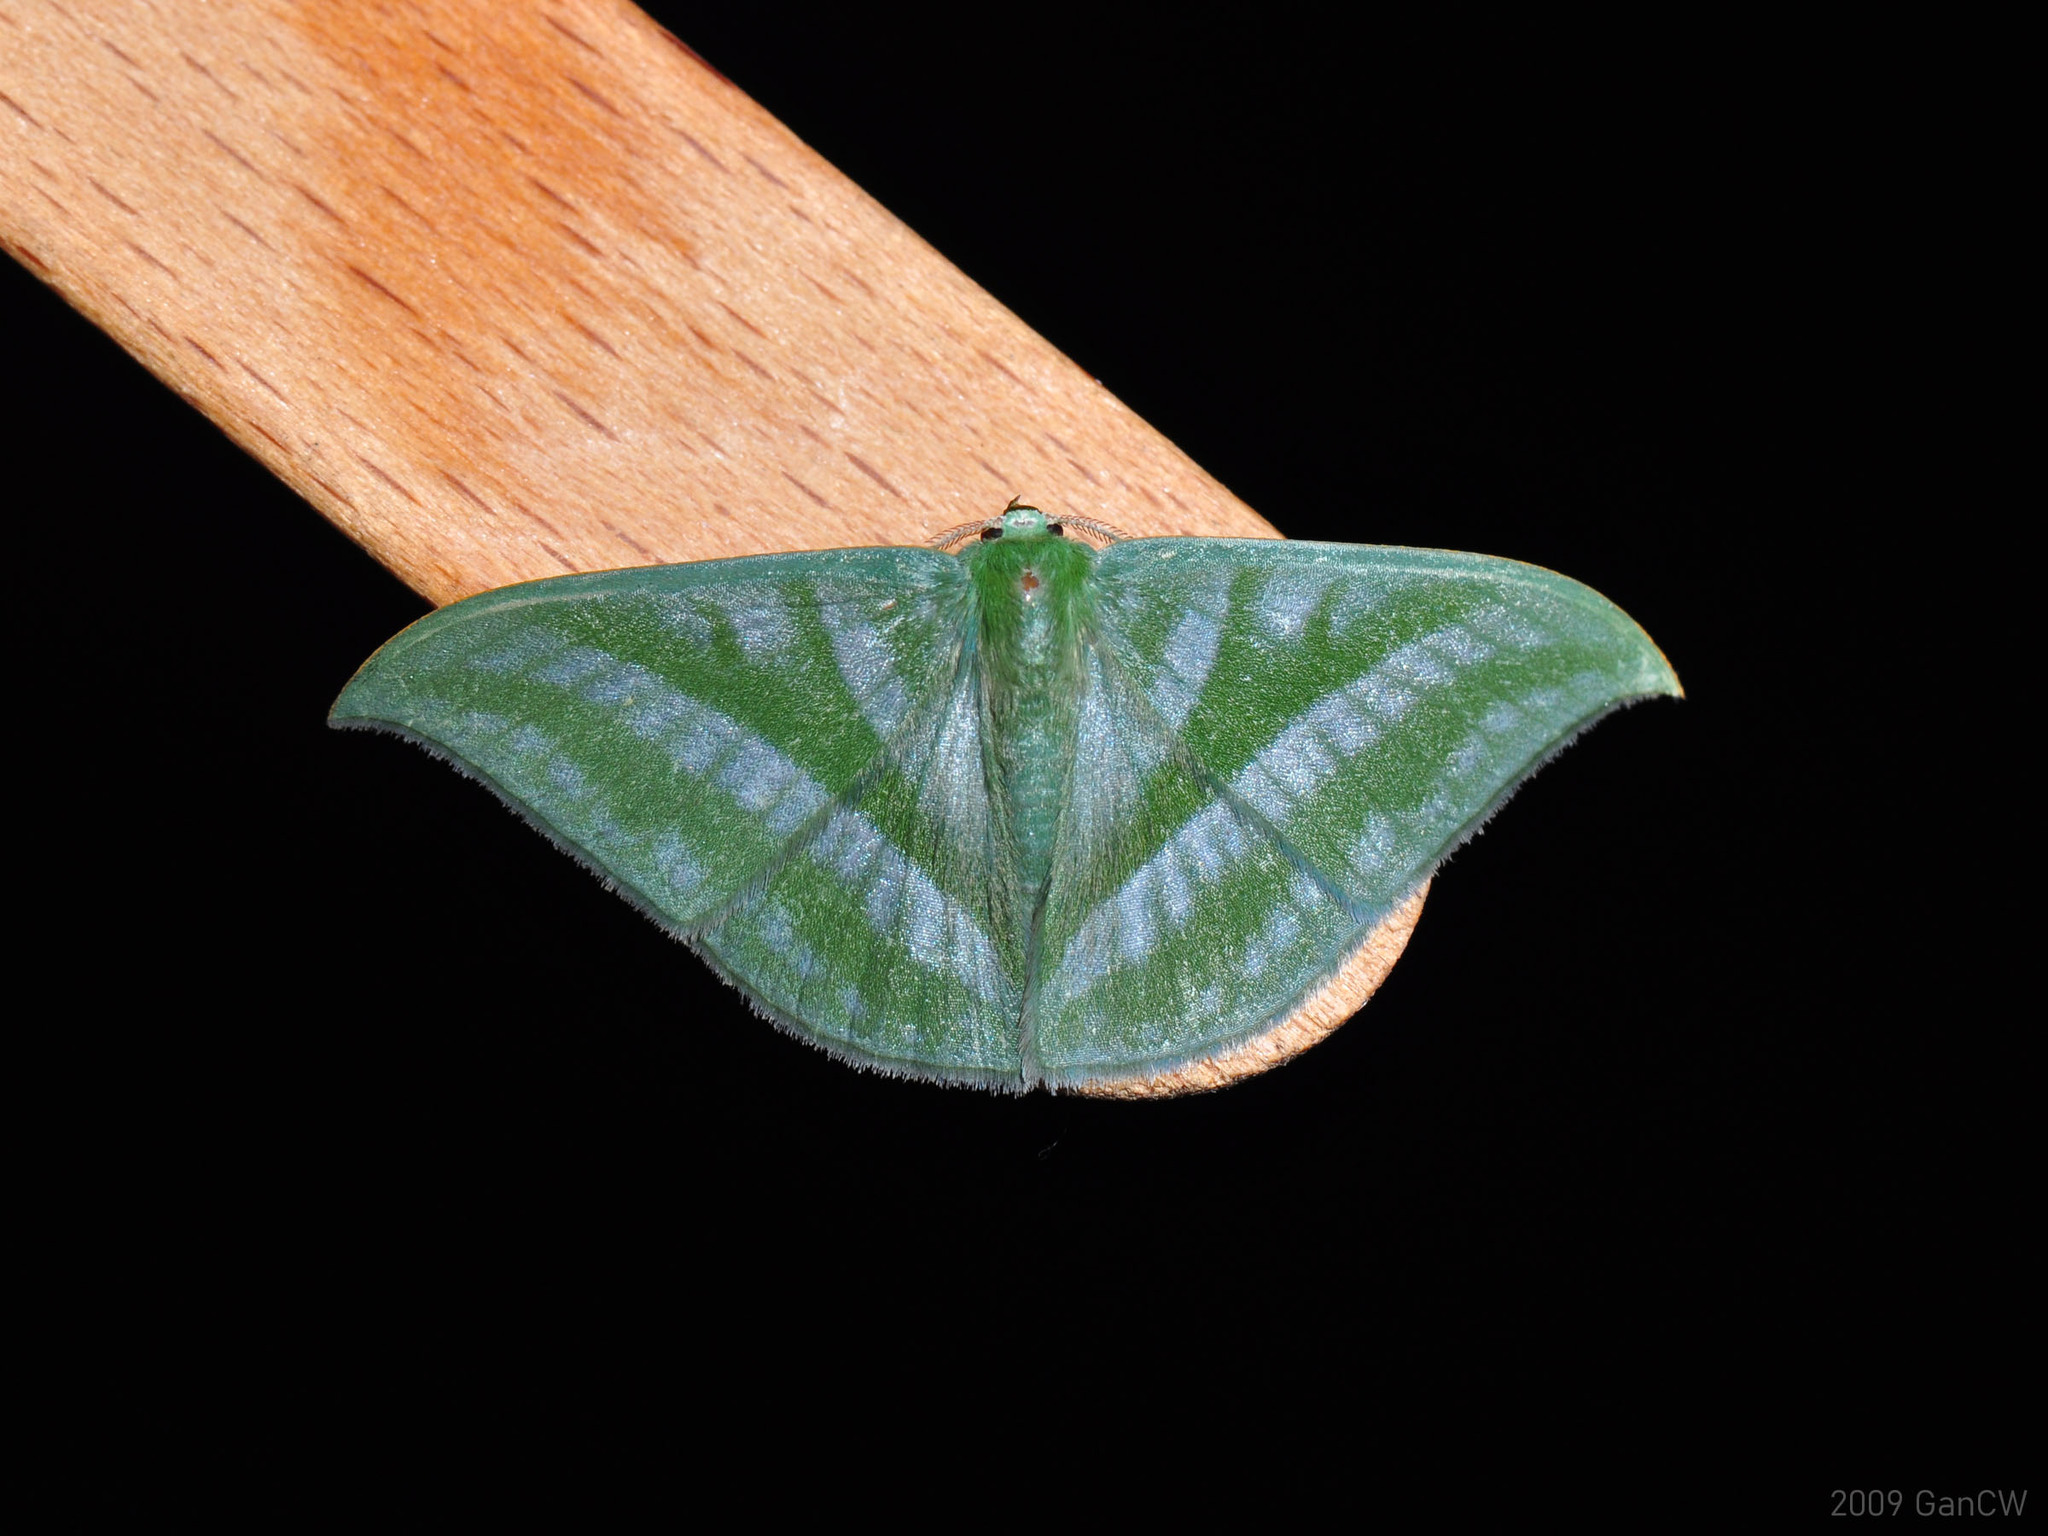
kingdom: Animalia
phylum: Arthropoda
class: Insecta
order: Lepidoptera
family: Geometridae
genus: Mixochlora
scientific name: Mixochlora vittata
